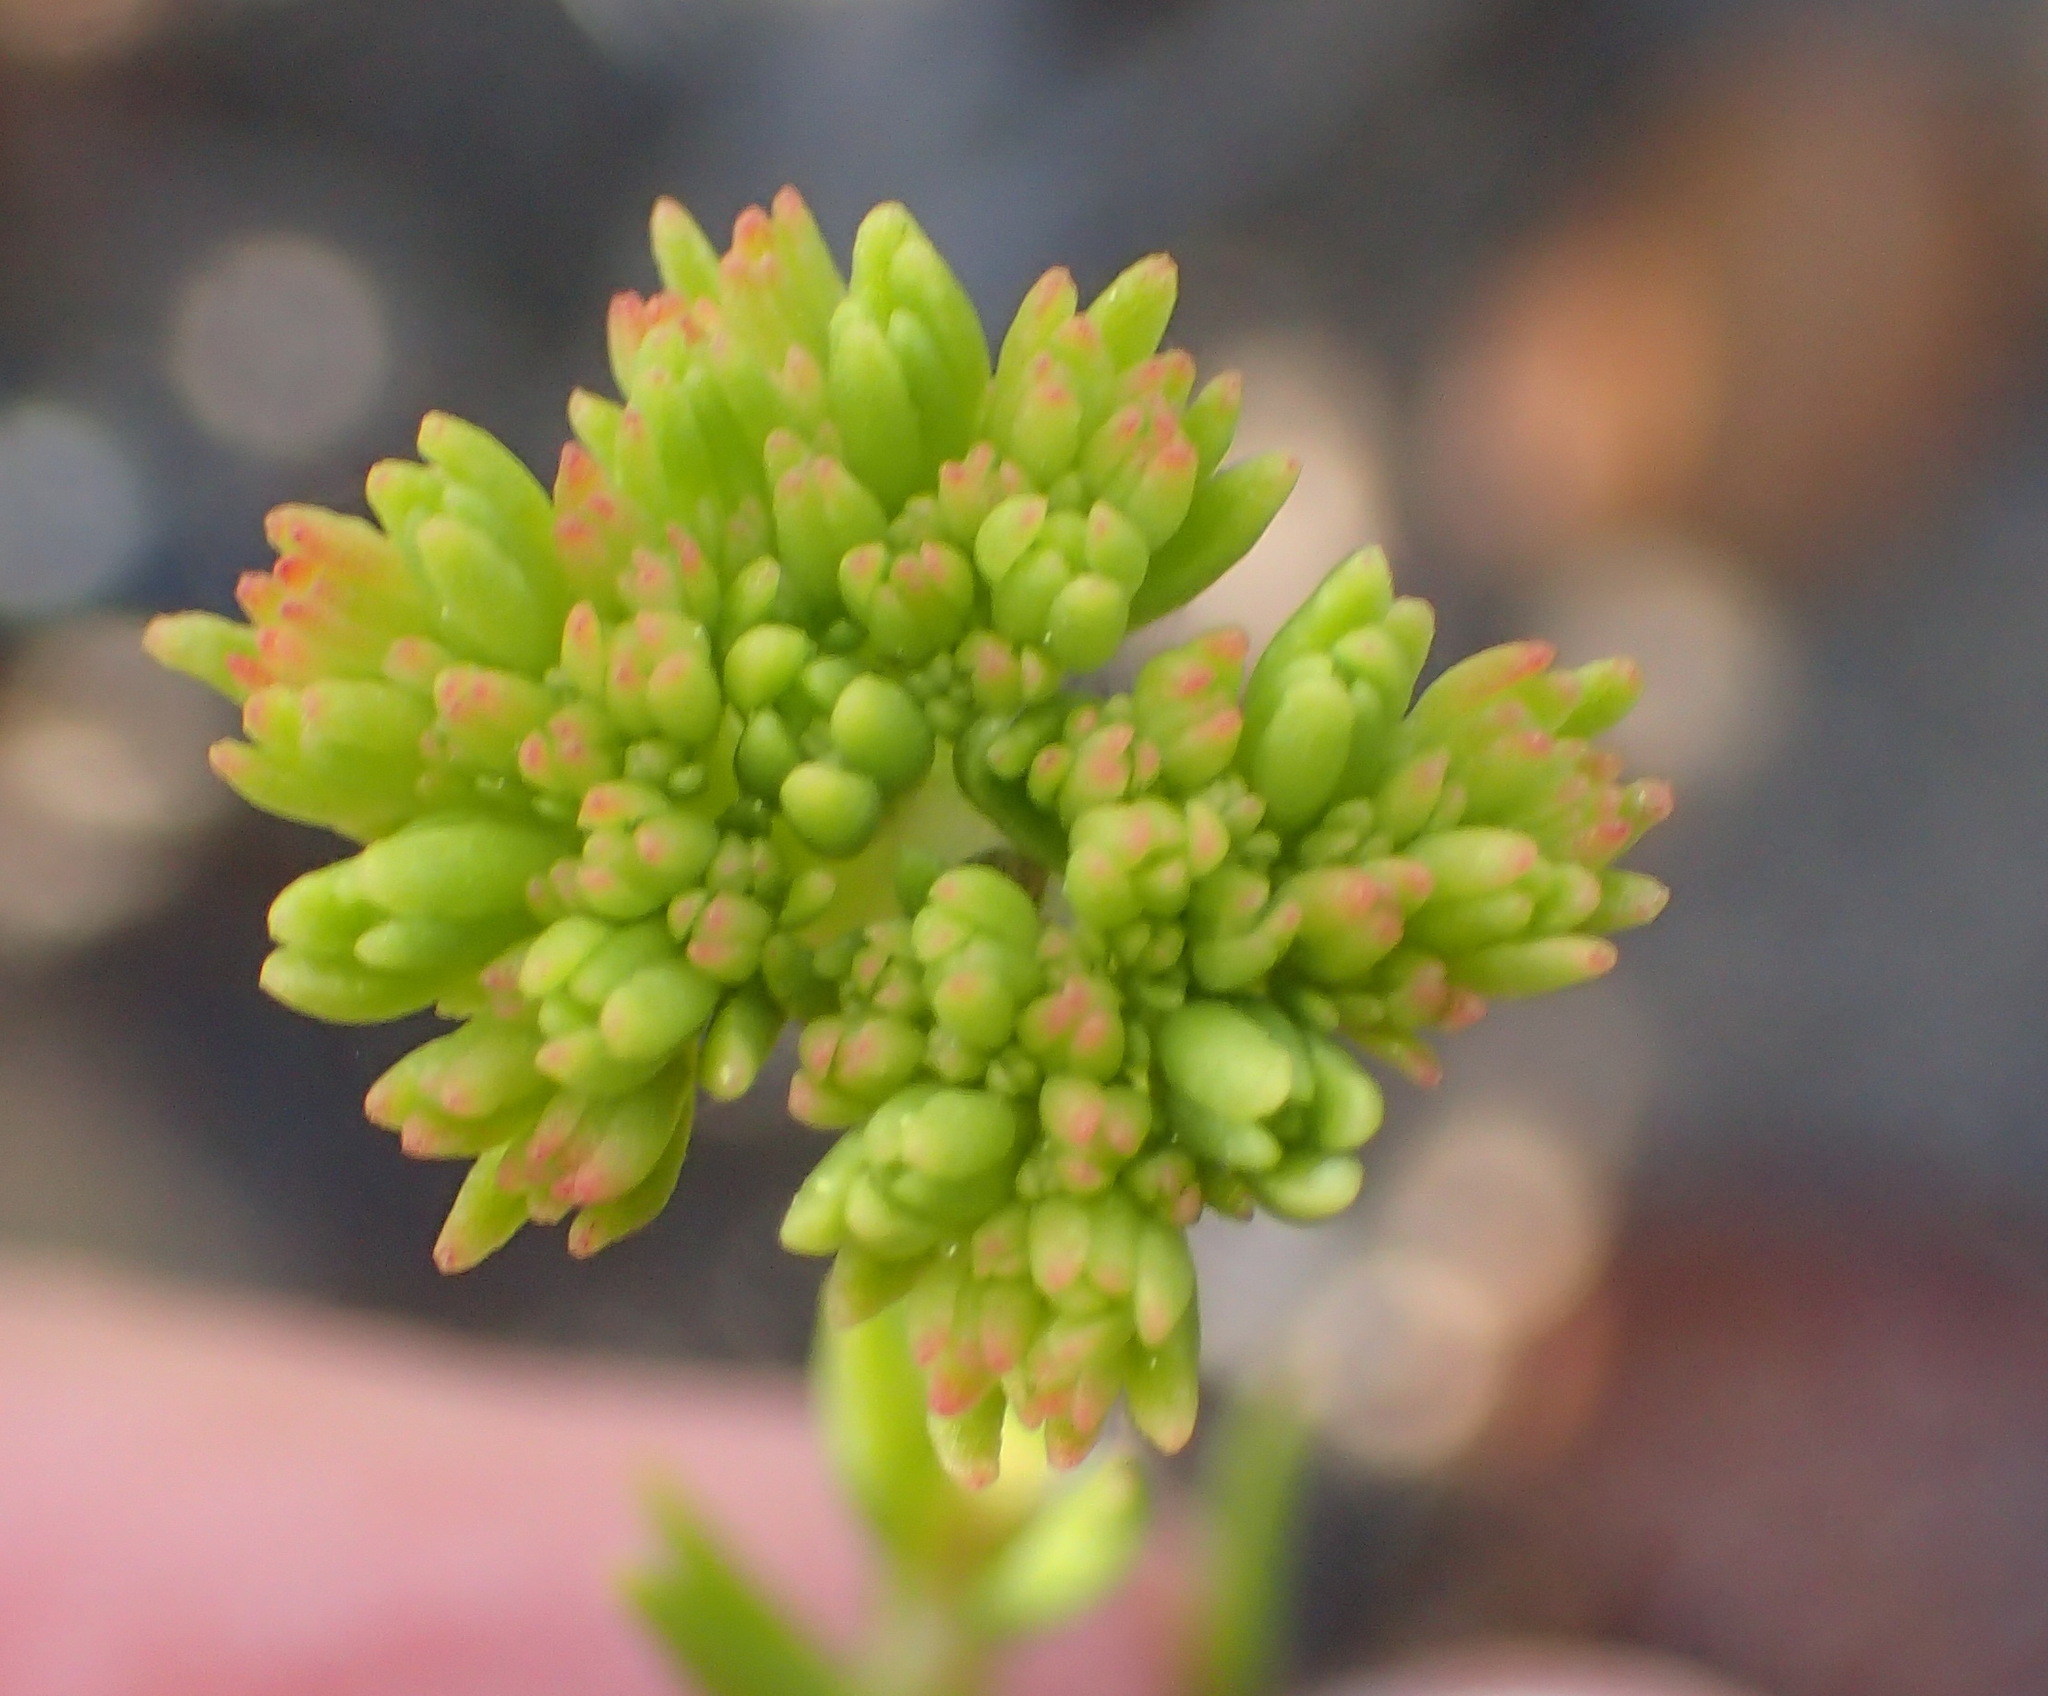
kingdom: Plantae
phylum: Tracheophyta
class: Magnoliopsida
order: Saxifragales
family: Crassulaceae
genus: Crassula
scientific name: Crassula subulata
